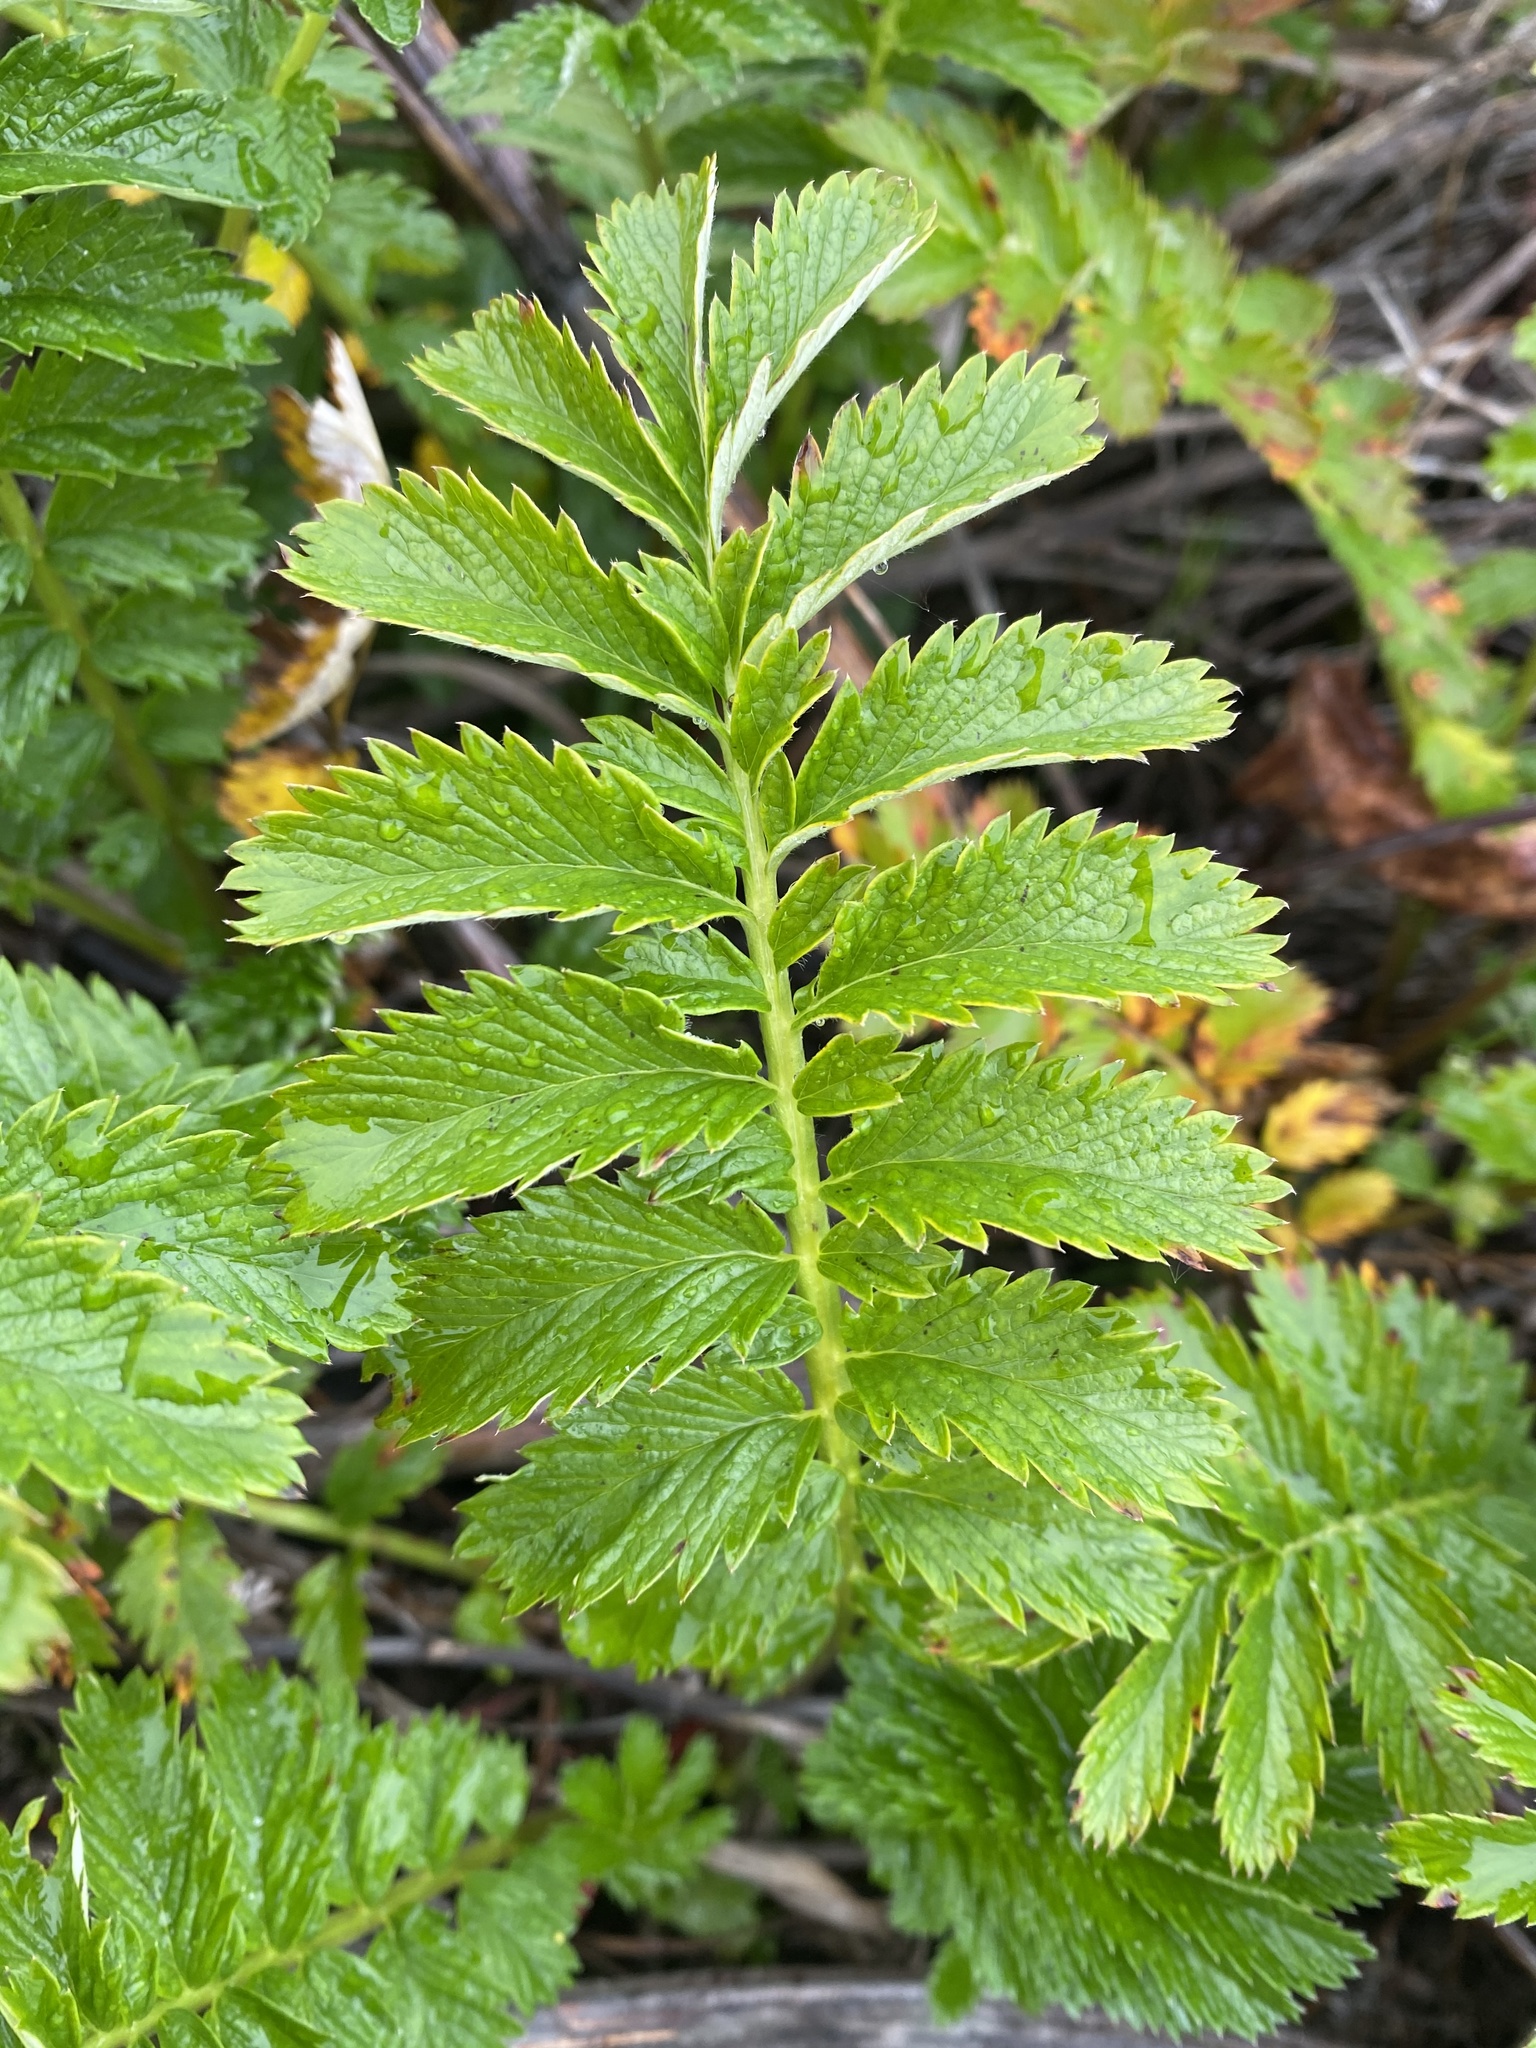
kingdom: Plantae
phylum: Tracheophyta
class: Magnoliopsida
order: Rosales
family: Rosaceae
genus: Argentina
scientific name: Argentina anserina
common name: Common silverweed
